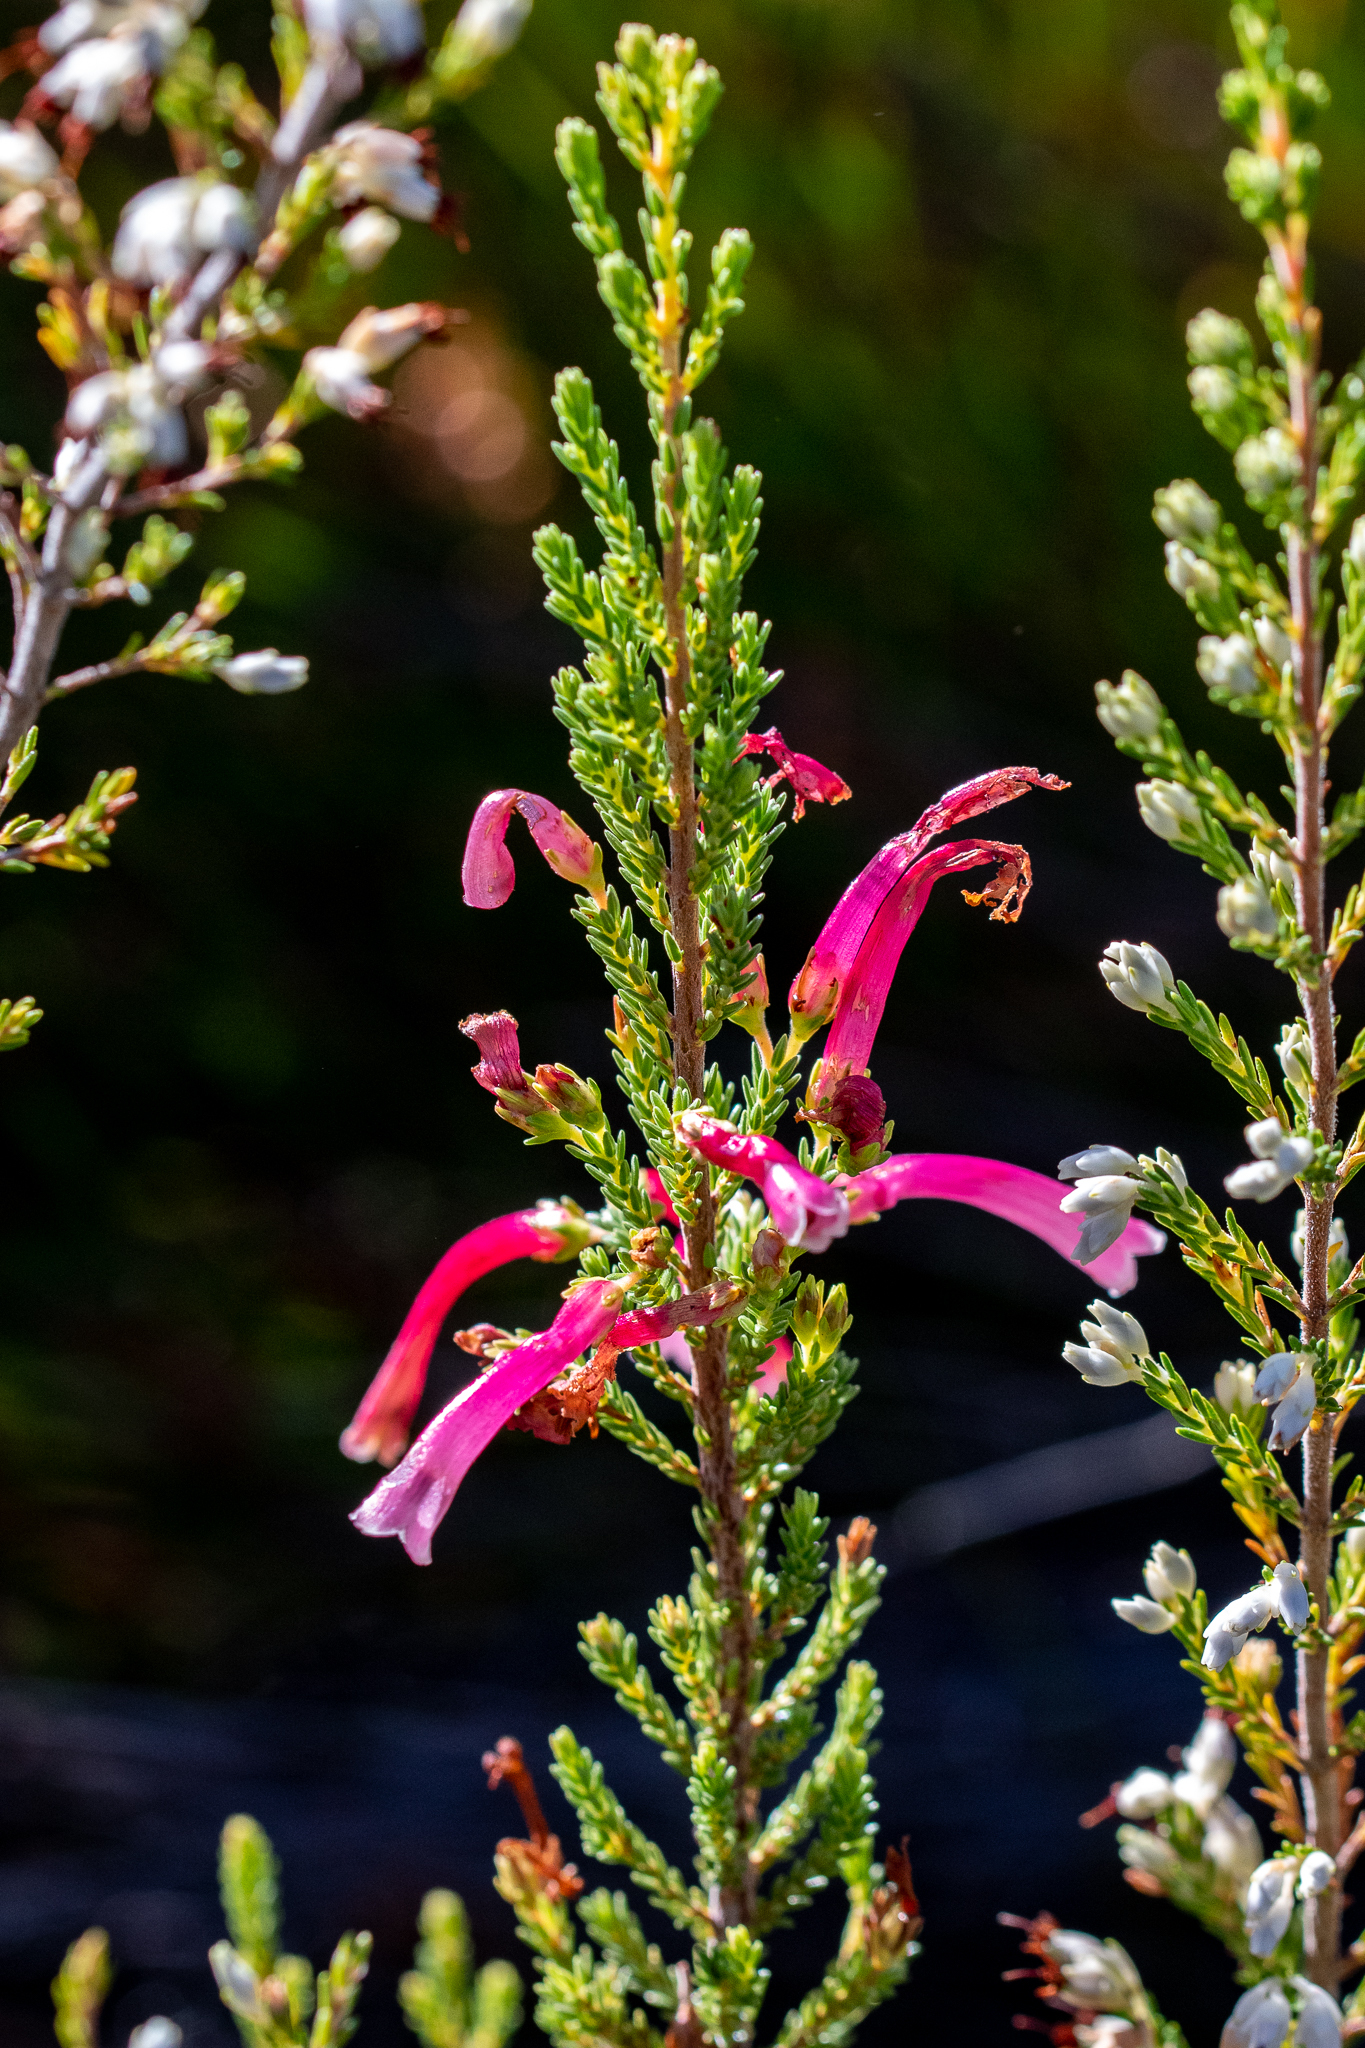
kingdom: Plantae
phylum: Tracheophyta
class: Magnoliopsida
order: Ericales
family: Ericaceae
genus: Erica
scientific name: Erica discolor
